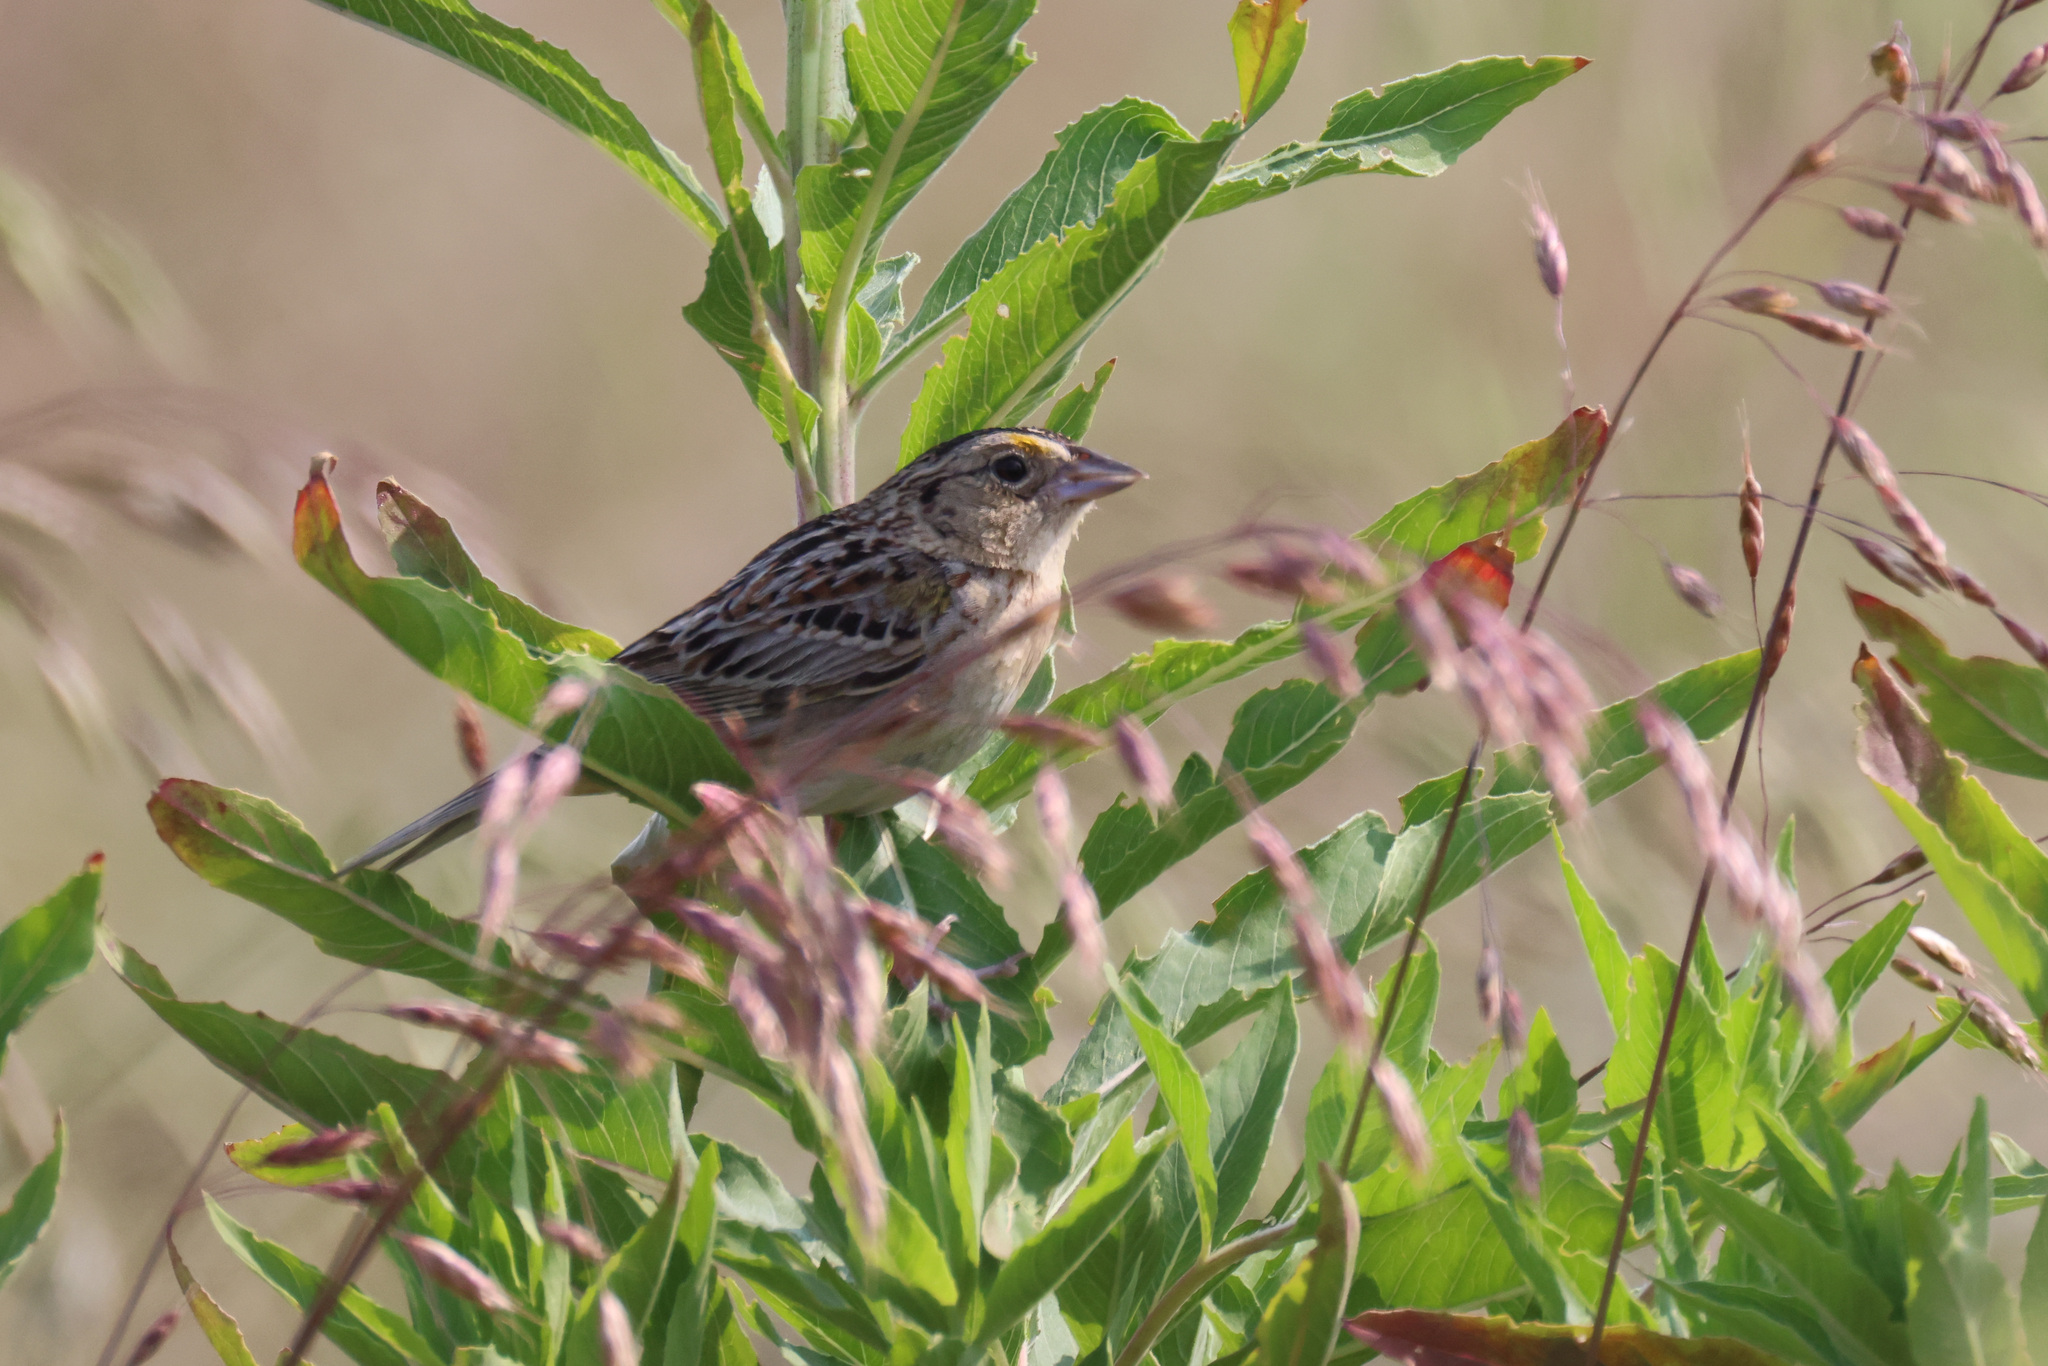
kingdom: Animalia
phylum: Chordata
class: Aves
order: Passeriformes
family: Passerellidae
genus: Ammodramus
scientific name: Ammodramus savannarum
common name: Grasshopper sparrow
